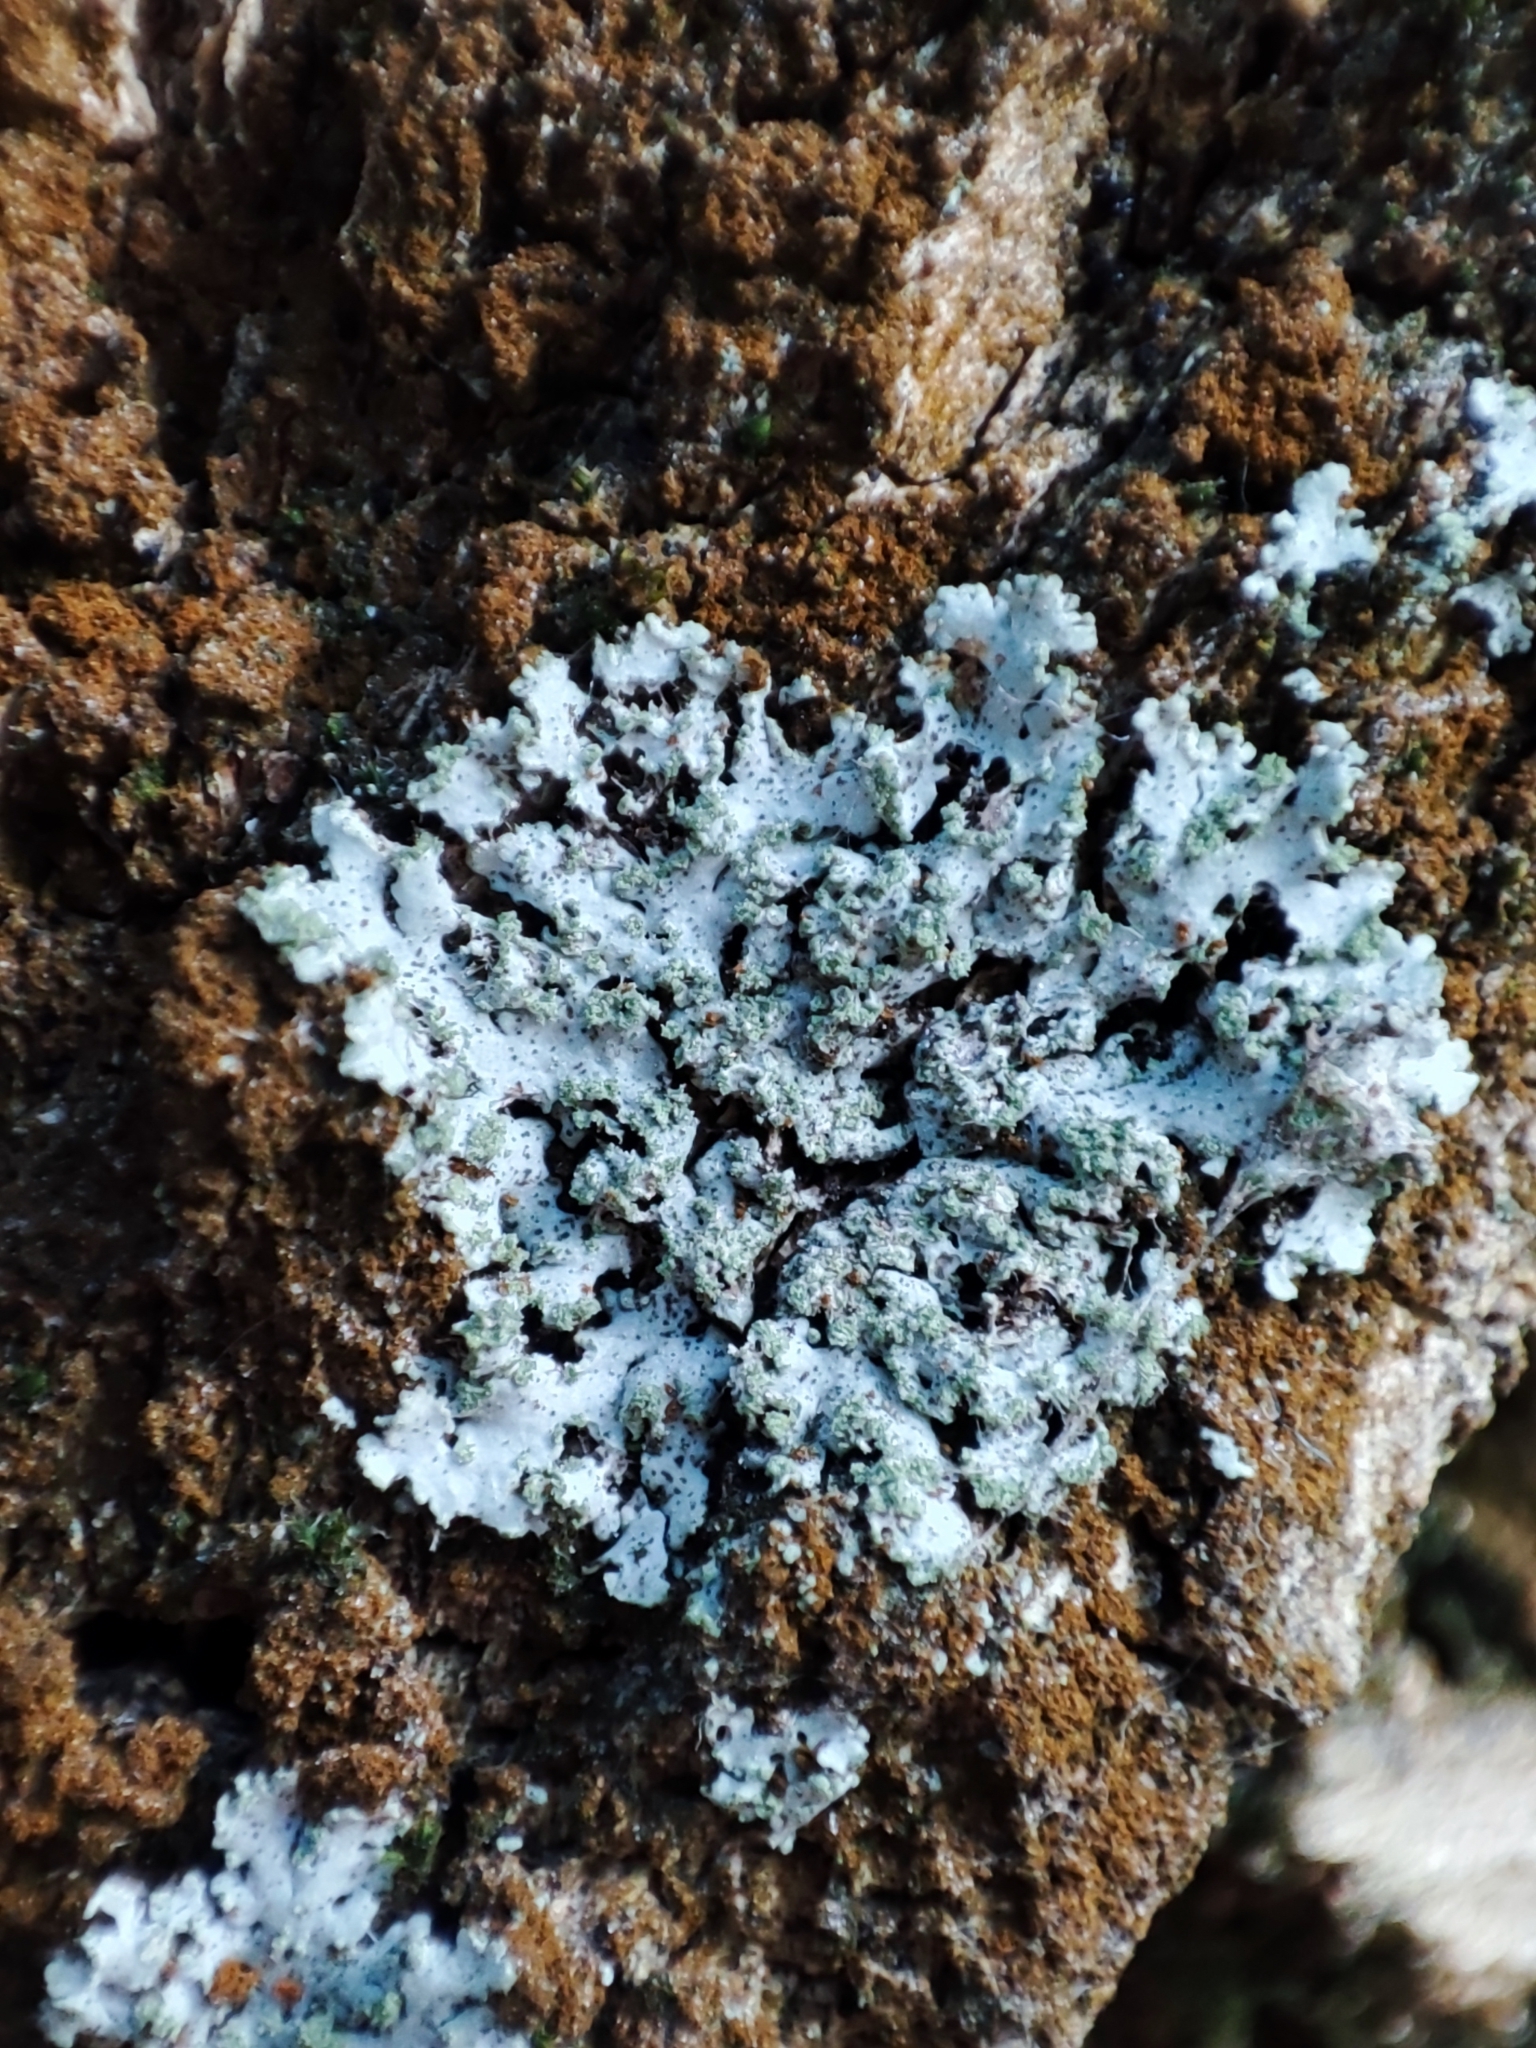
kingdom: Fungi
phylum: Ascomycota
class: Lecanoromycetes
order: Caliciales
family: Physciaceae
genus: Phaeophyscia
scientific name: Phaeophyscia orbicularis
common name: Mealy shadow lichen
